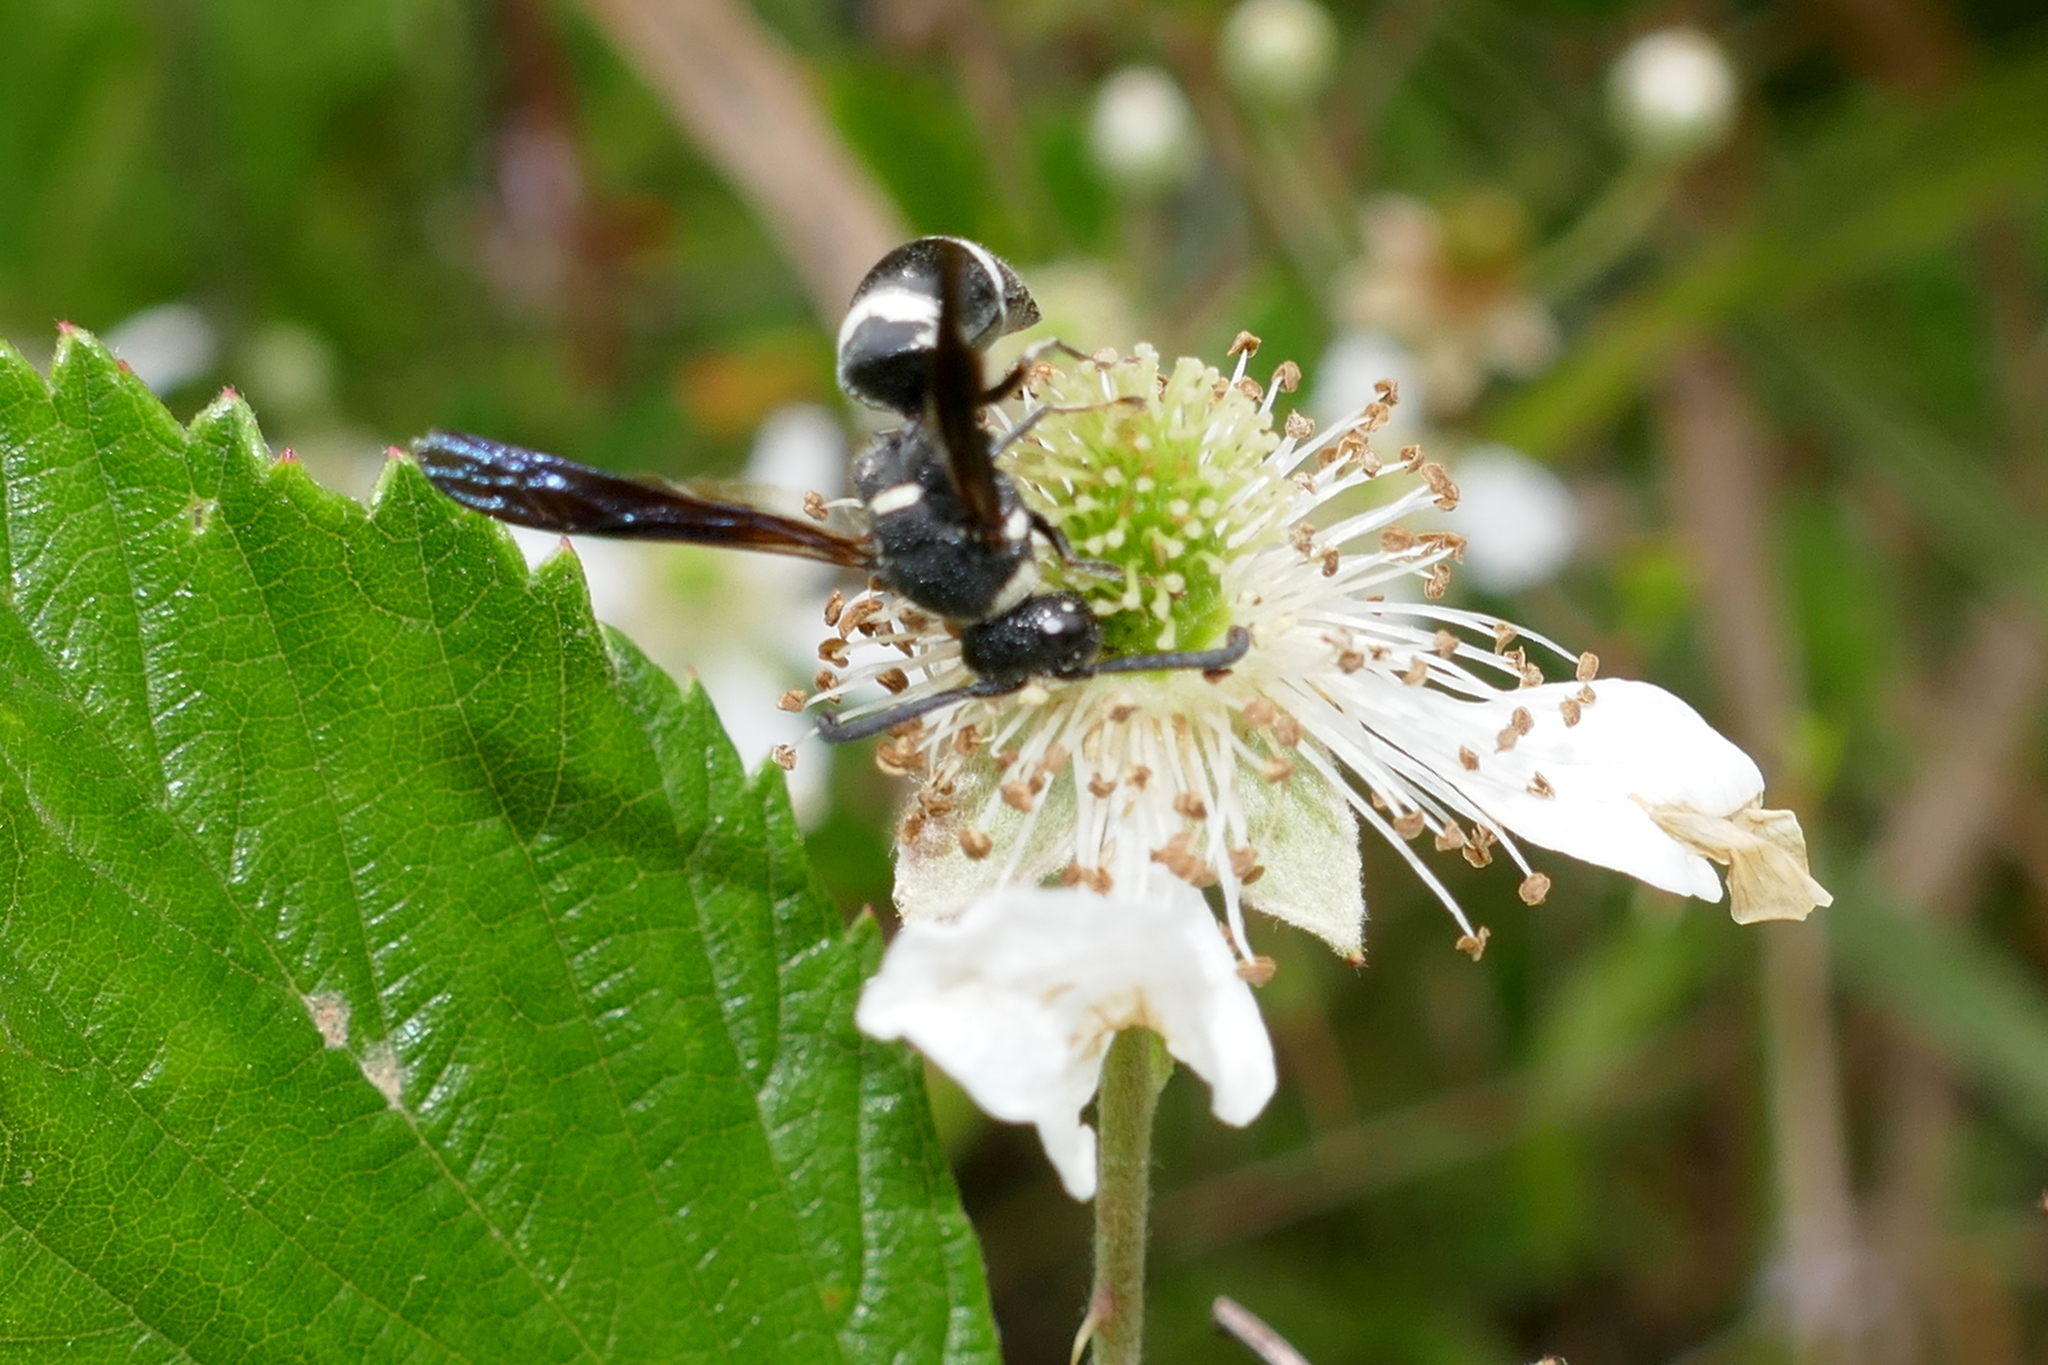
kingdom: Animalia
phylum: Arthropoda
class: Insecta
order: Hymenoptera
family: Eumenidae
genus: Euodynerus
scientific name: Euodynerus
